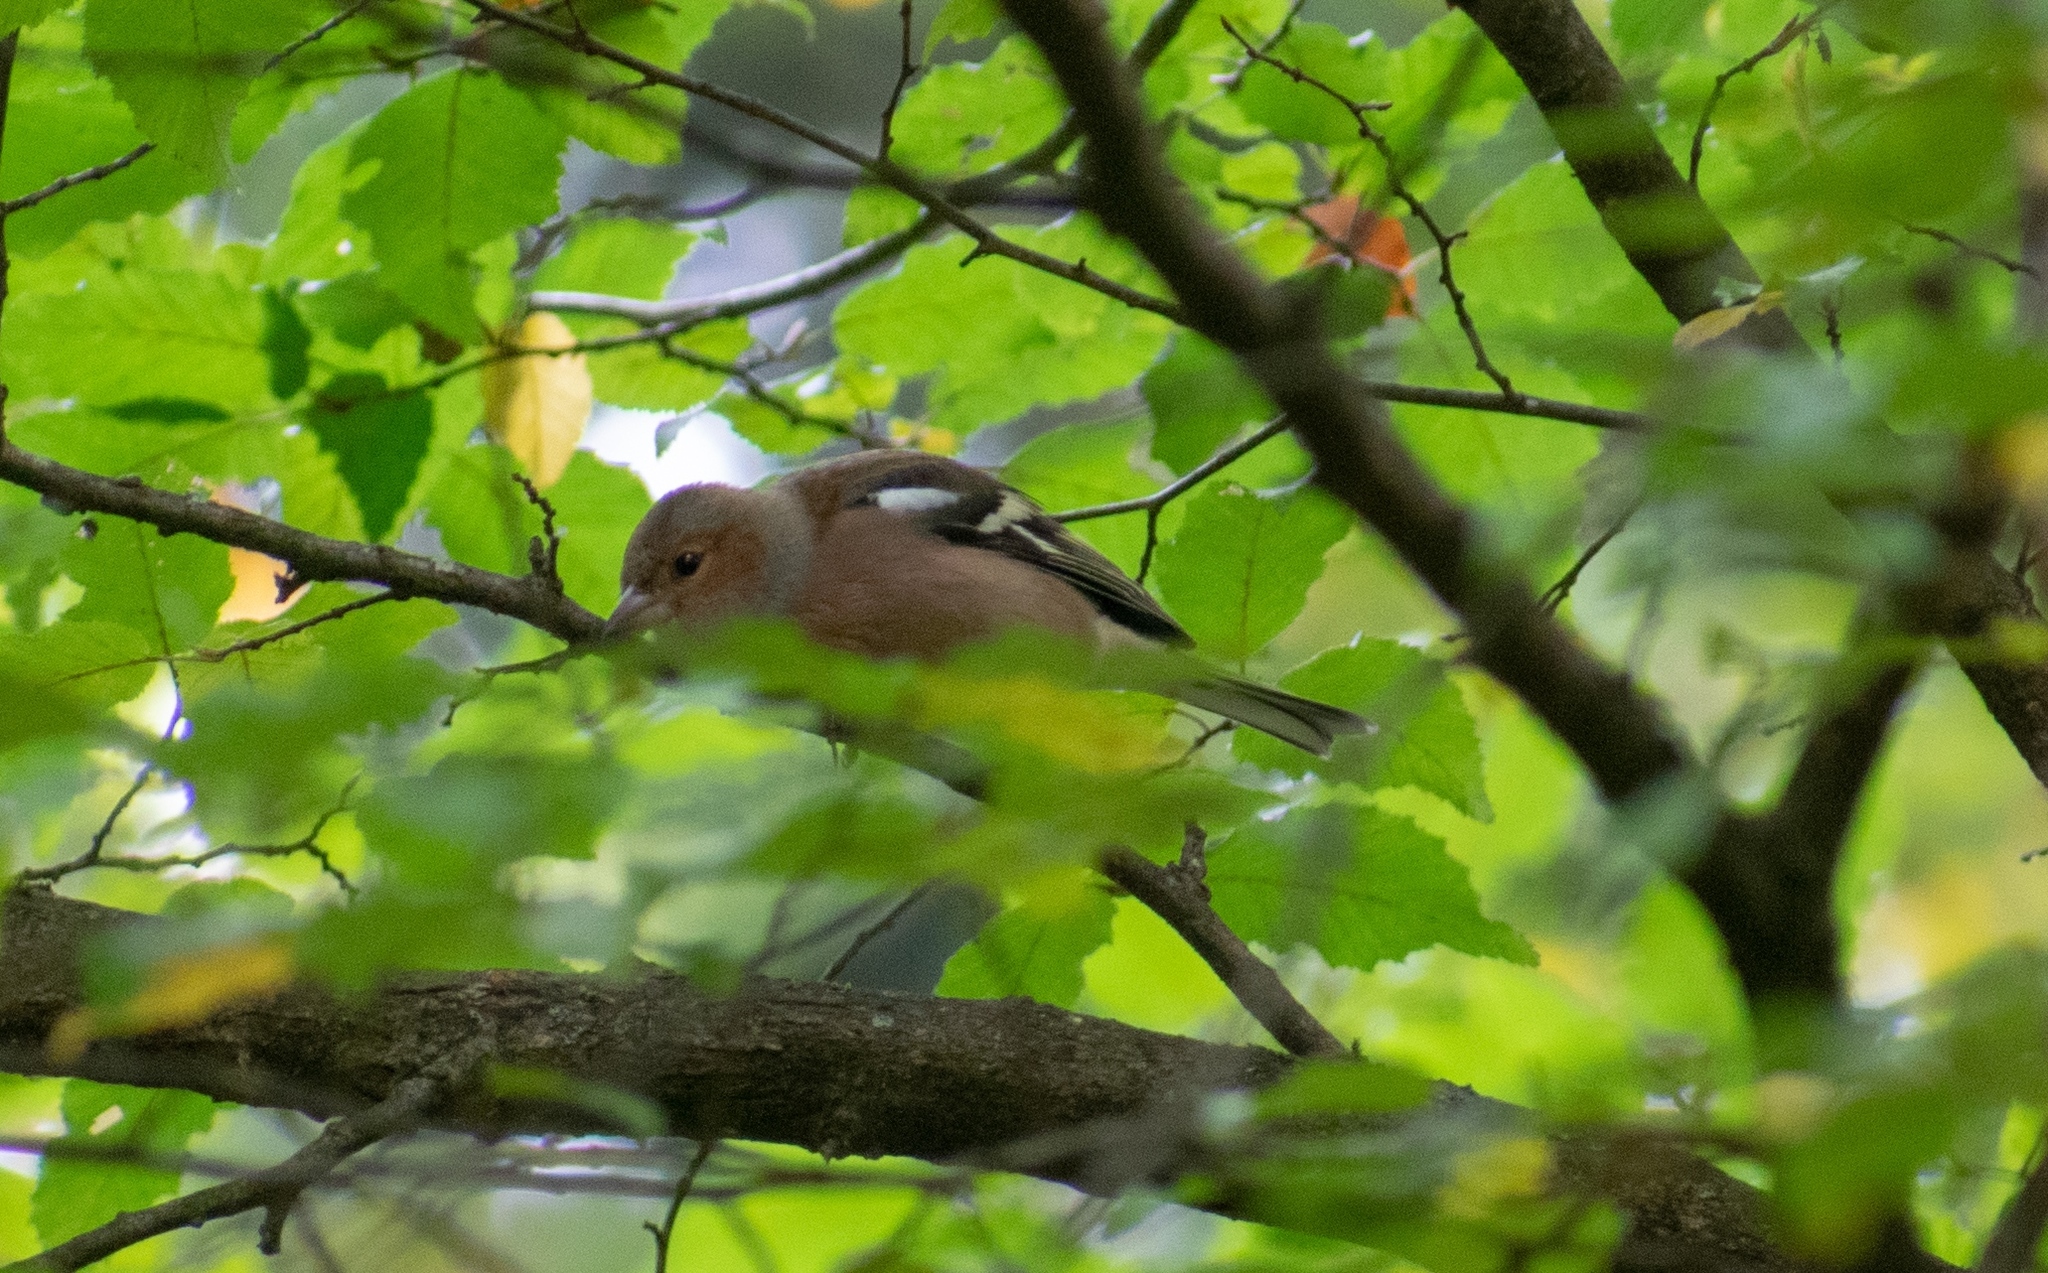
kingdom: Animalia
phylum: Chordata
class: Aves
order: Passeriformes
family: Fringillidae
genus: Fringilla
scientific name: Fringilla coelebs
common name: Common chaffinch
